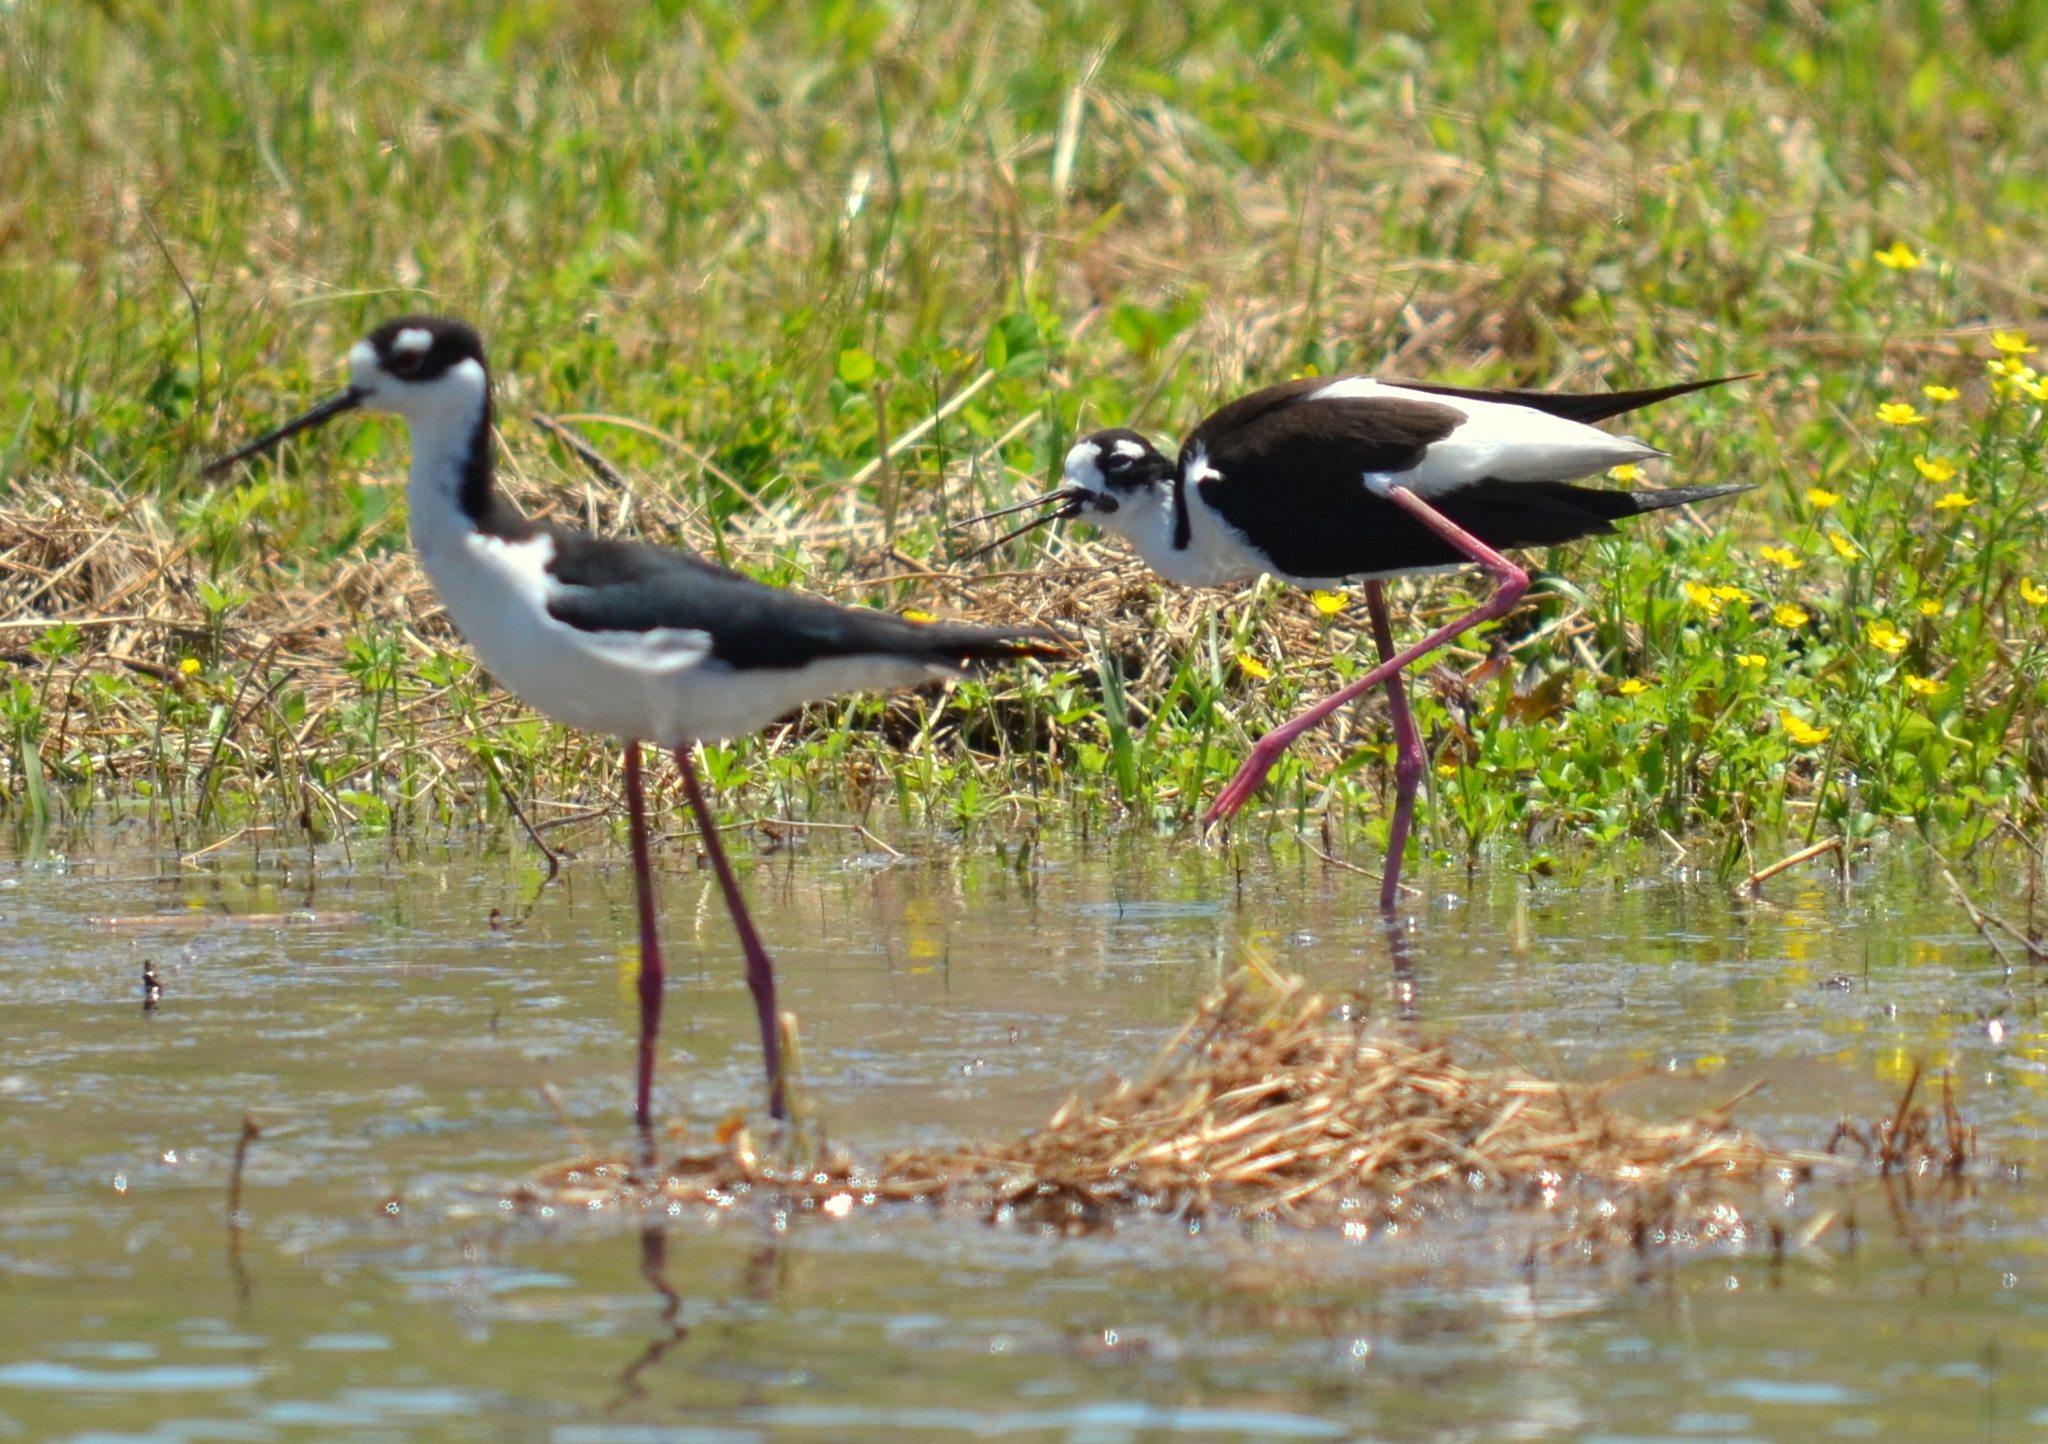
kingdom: Animalia
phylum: Chordata
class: Aves
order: Charadriiformes
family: Recurvirostridae
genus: Himantopus
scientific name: Himantopus mexicanus
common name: Black-necked stilt
